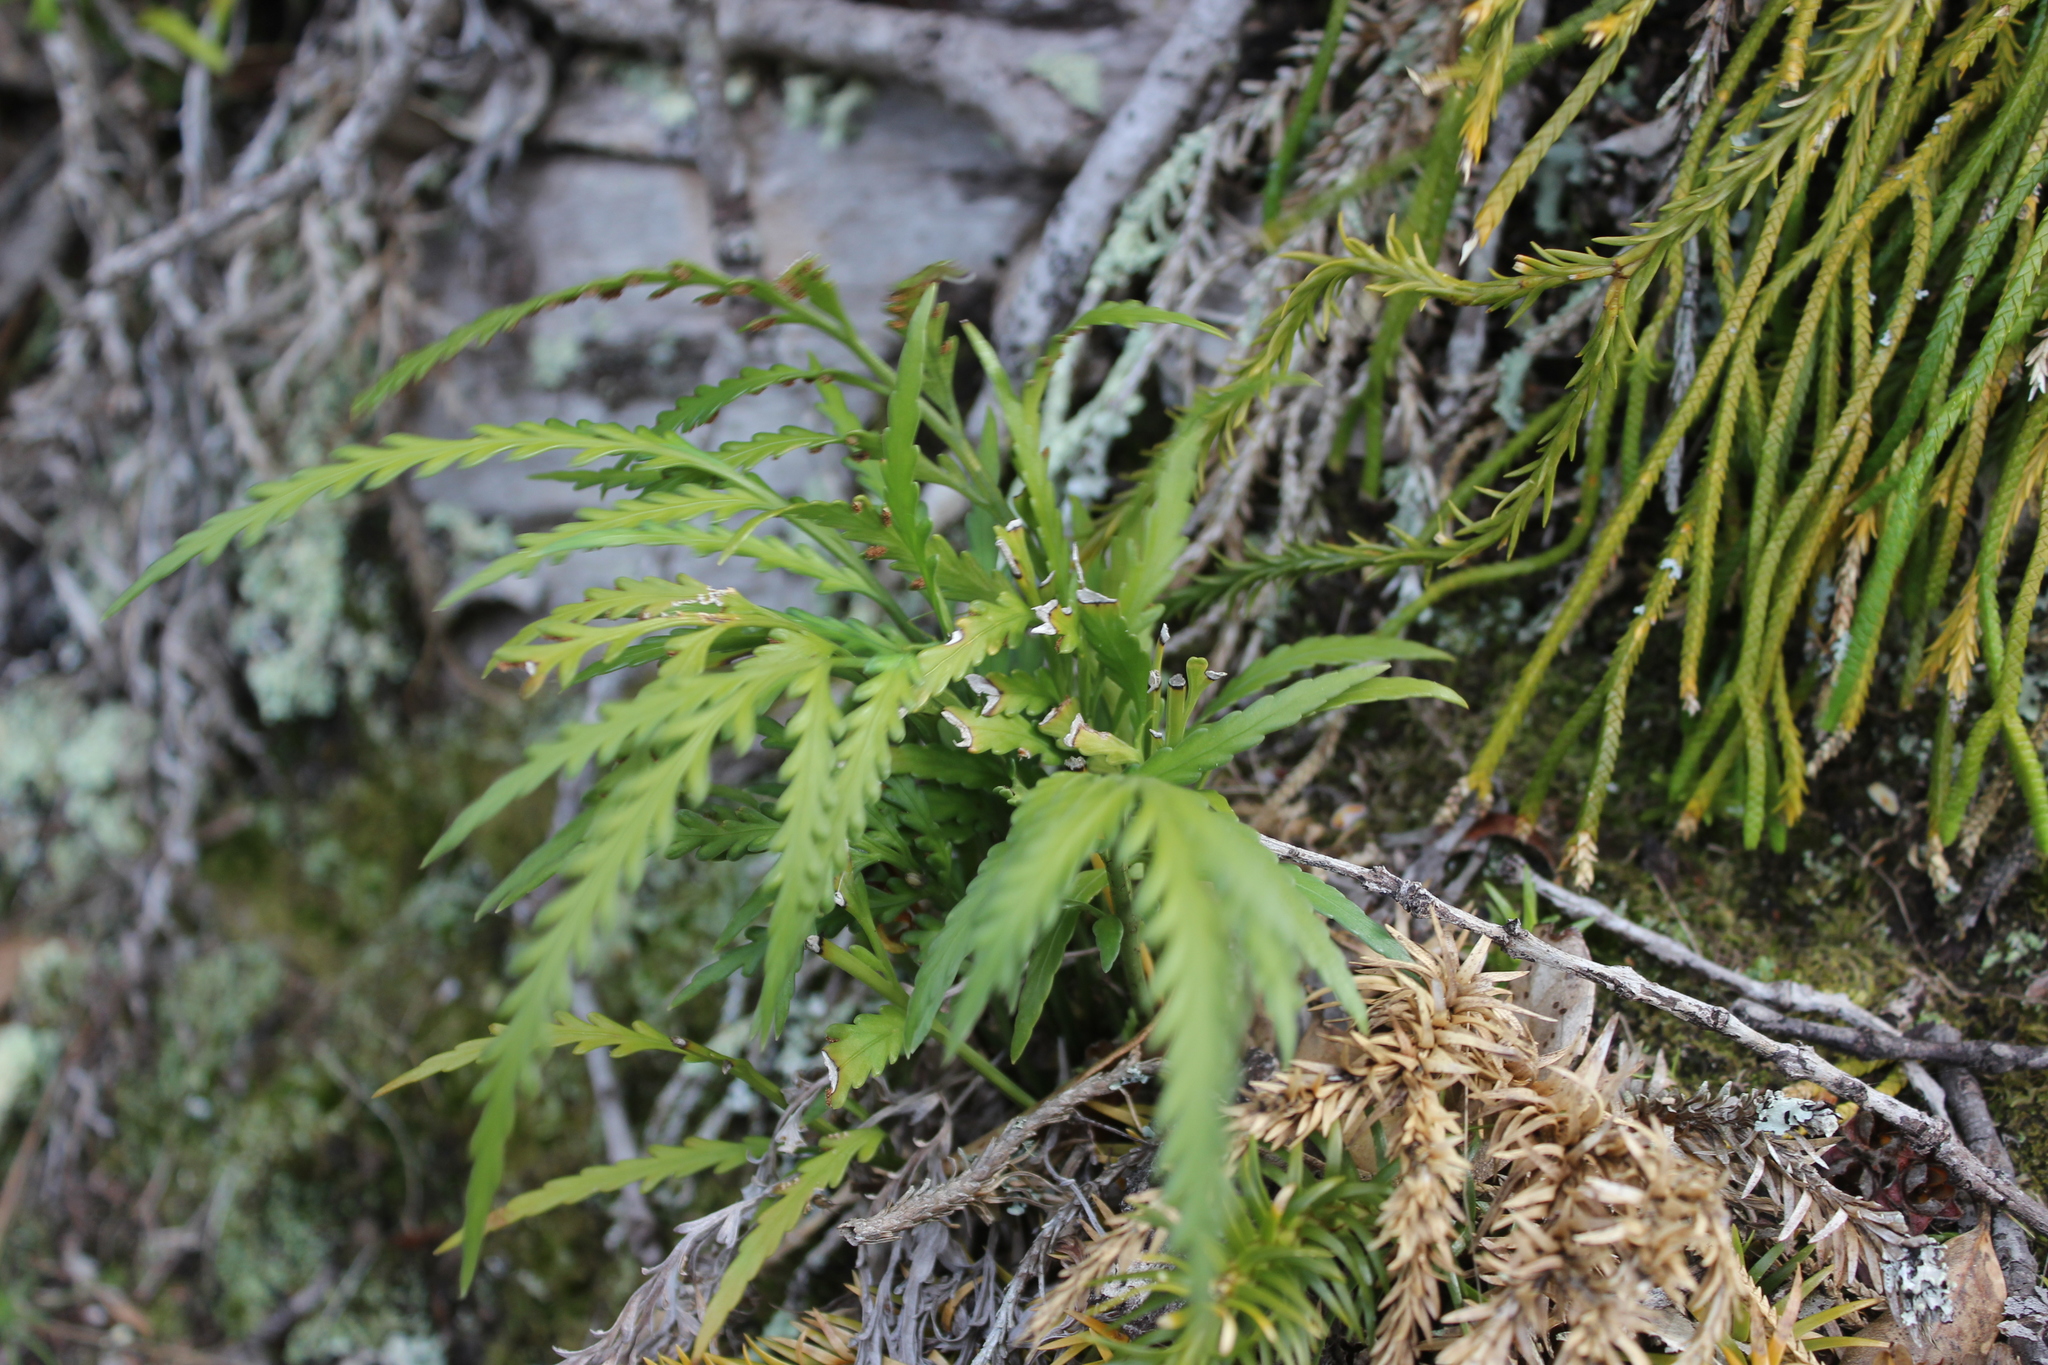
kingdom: Plantae
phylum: Tracheophyta
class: Polypodiopsida
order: Polypodiales
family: Aspleniaceae
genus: Asplenium
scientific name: Asplenium flaccidum
